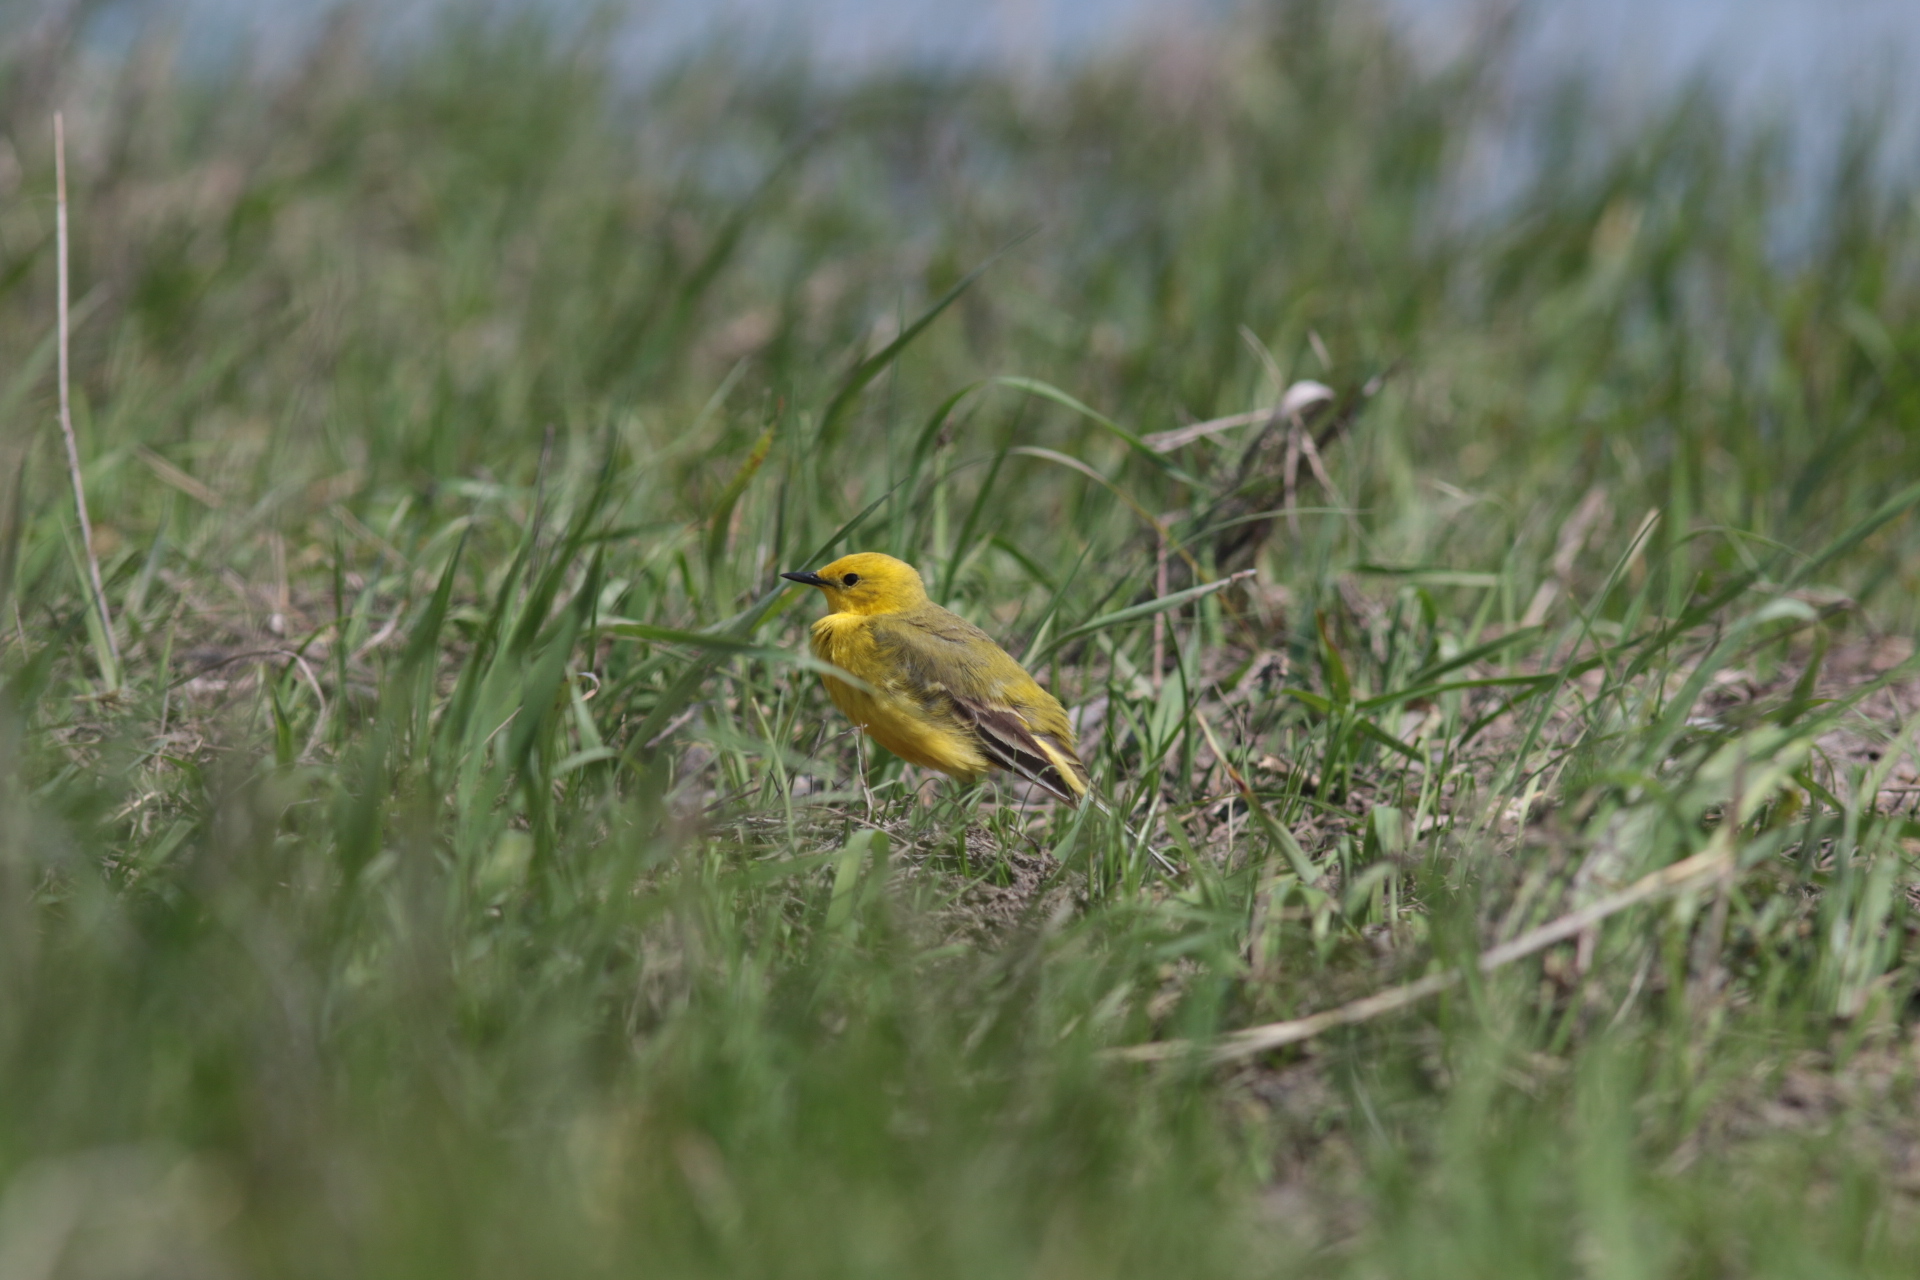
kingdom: Animalia
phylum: Chordata
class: Aves
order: Passeriformes
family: Motacillidae
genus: Motacilla
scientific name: Motacilla flava
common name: Western yellow wagtail
